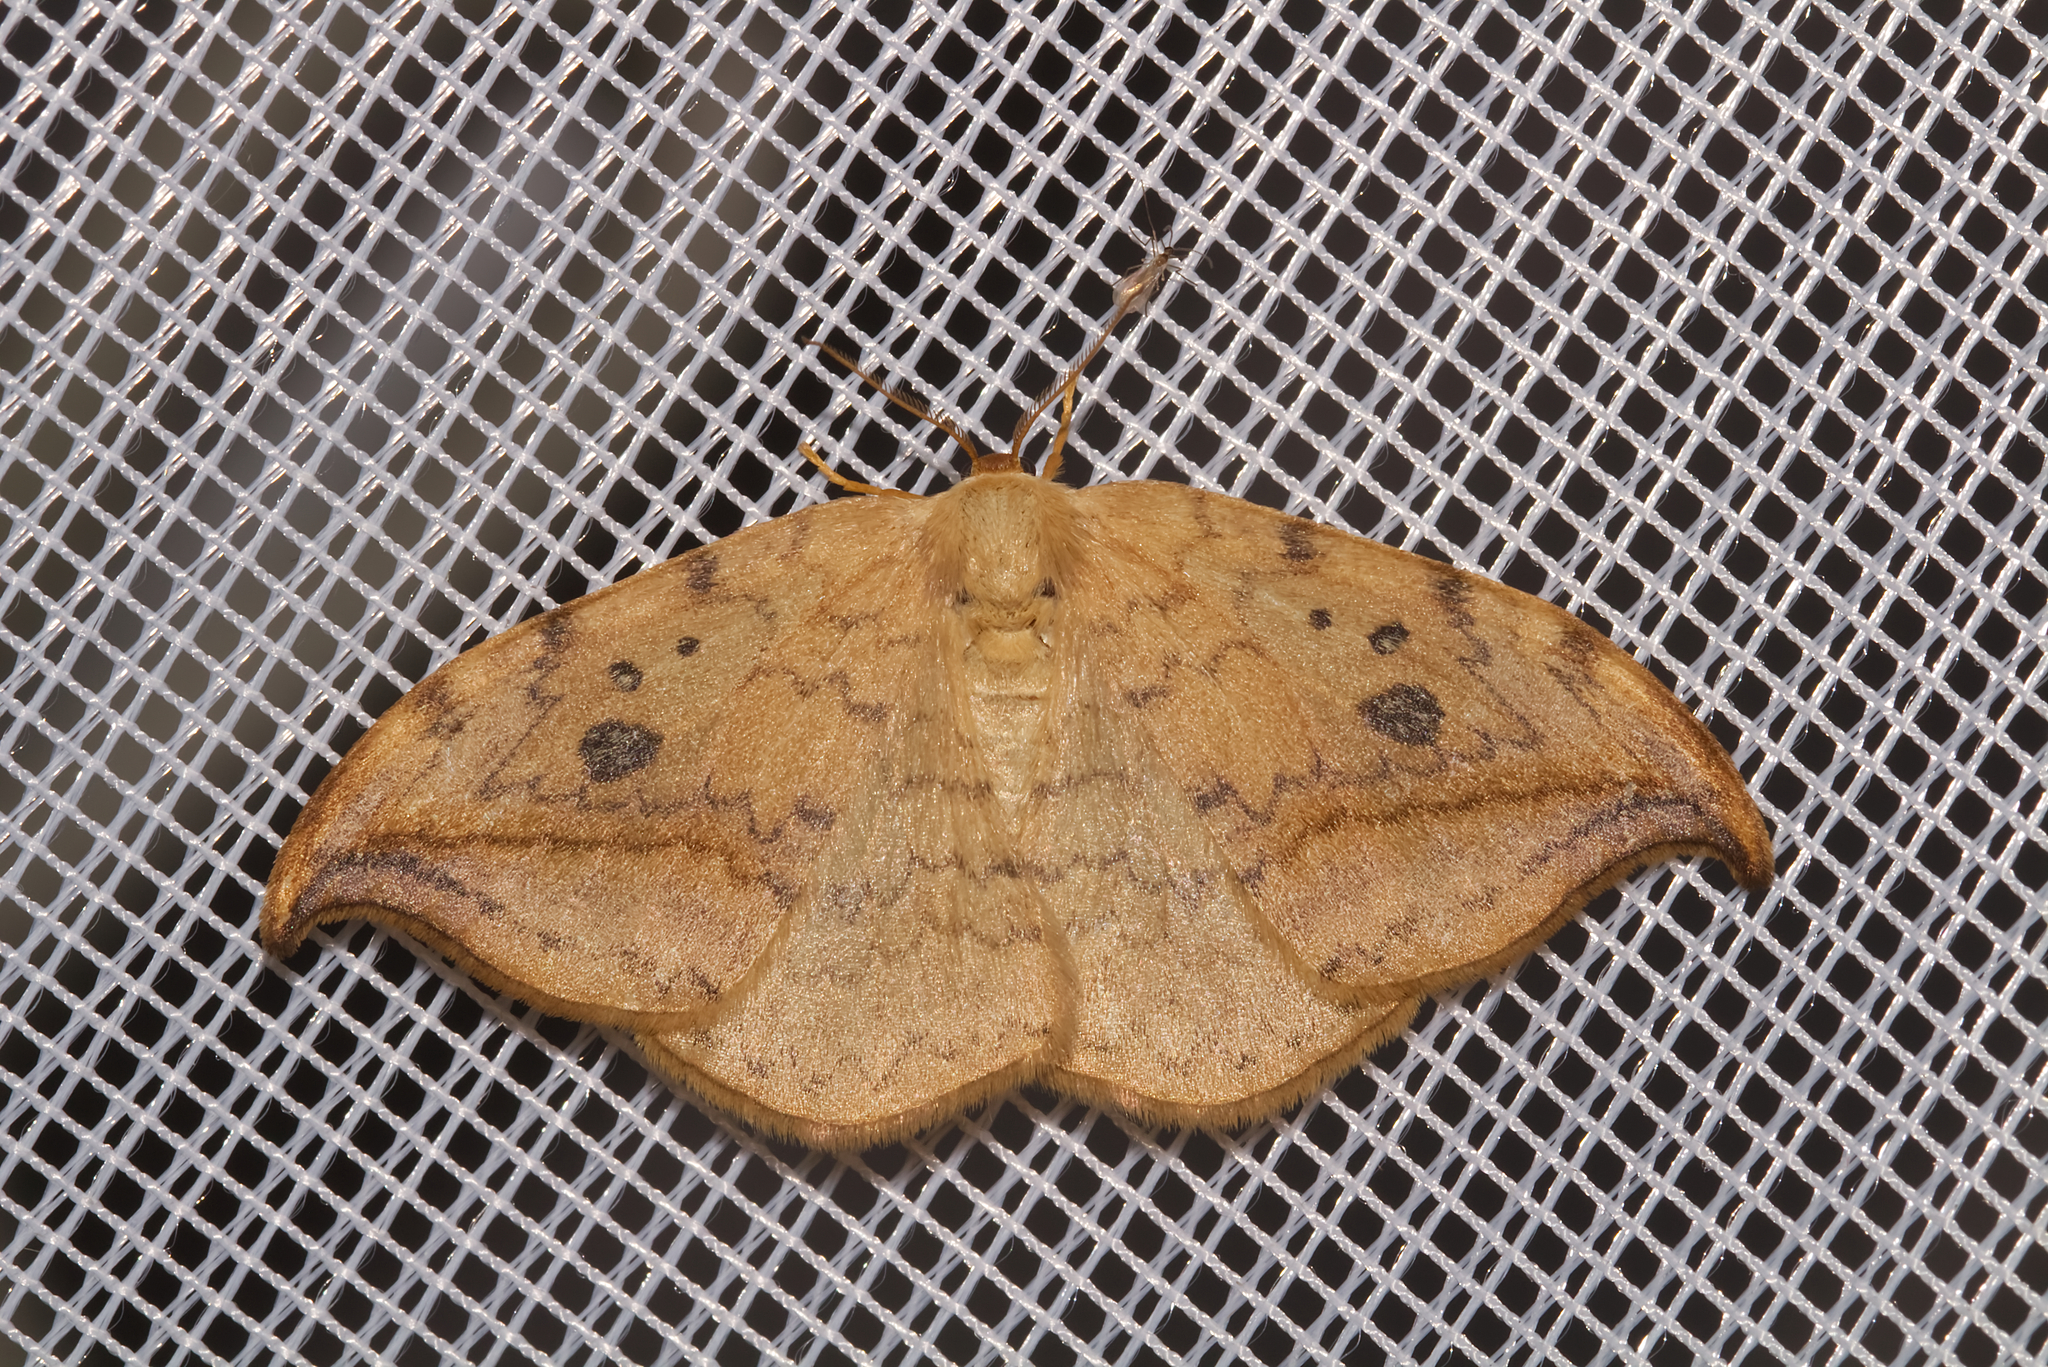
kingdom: Animalia
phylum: Arthropoda
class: Insecta
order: Lepidoptera
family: Drepanidae
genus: Drepana
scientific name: Drepana falcataria
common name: Pebble hook-tip
